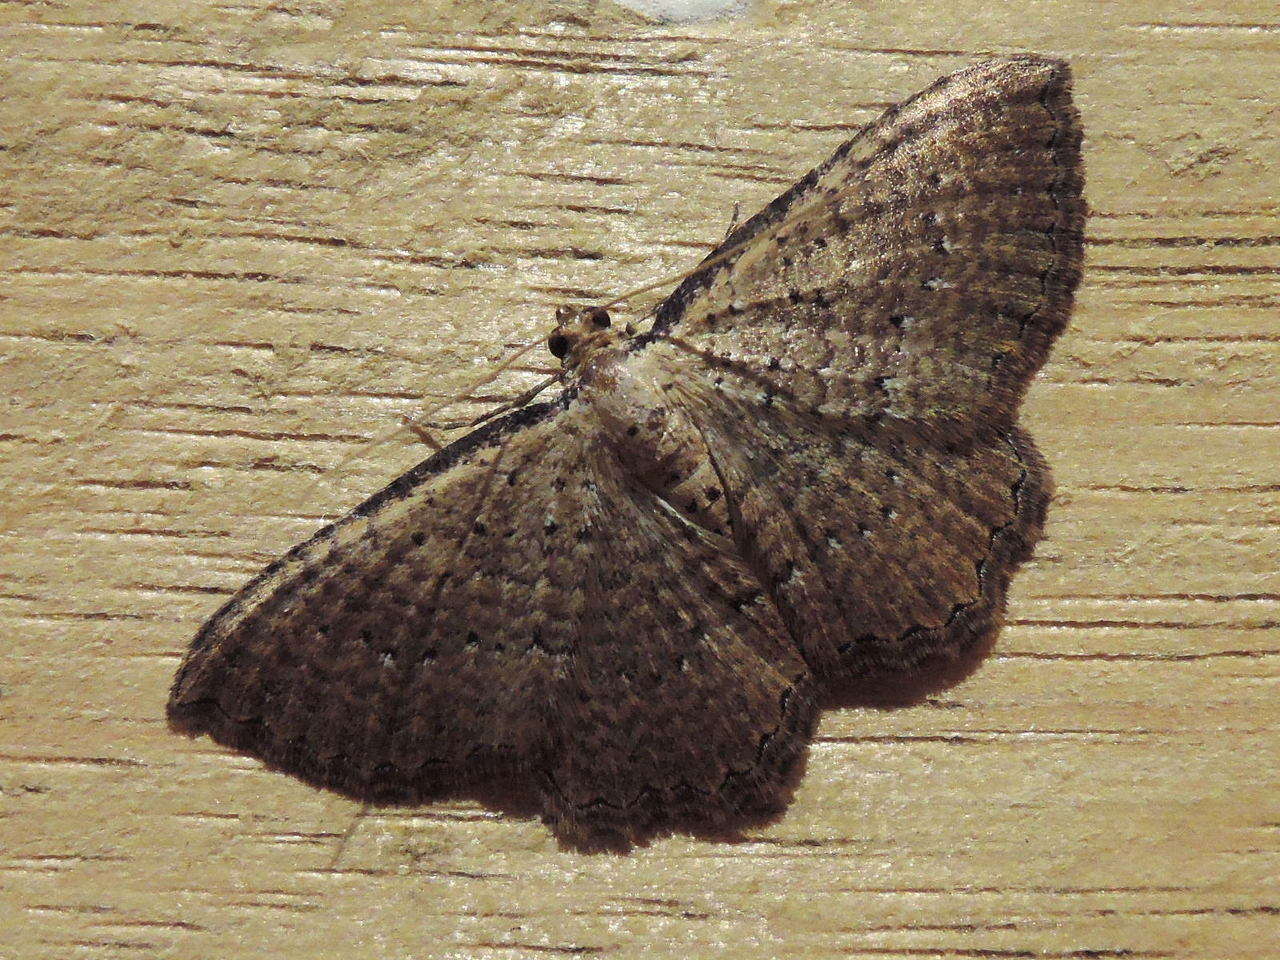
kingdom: Animalia
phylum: Arthropoda
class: Insecta
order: Lepidoptera
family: Geometridae
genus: Chrysolarentia
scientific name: Chrysolarentia microcyma
